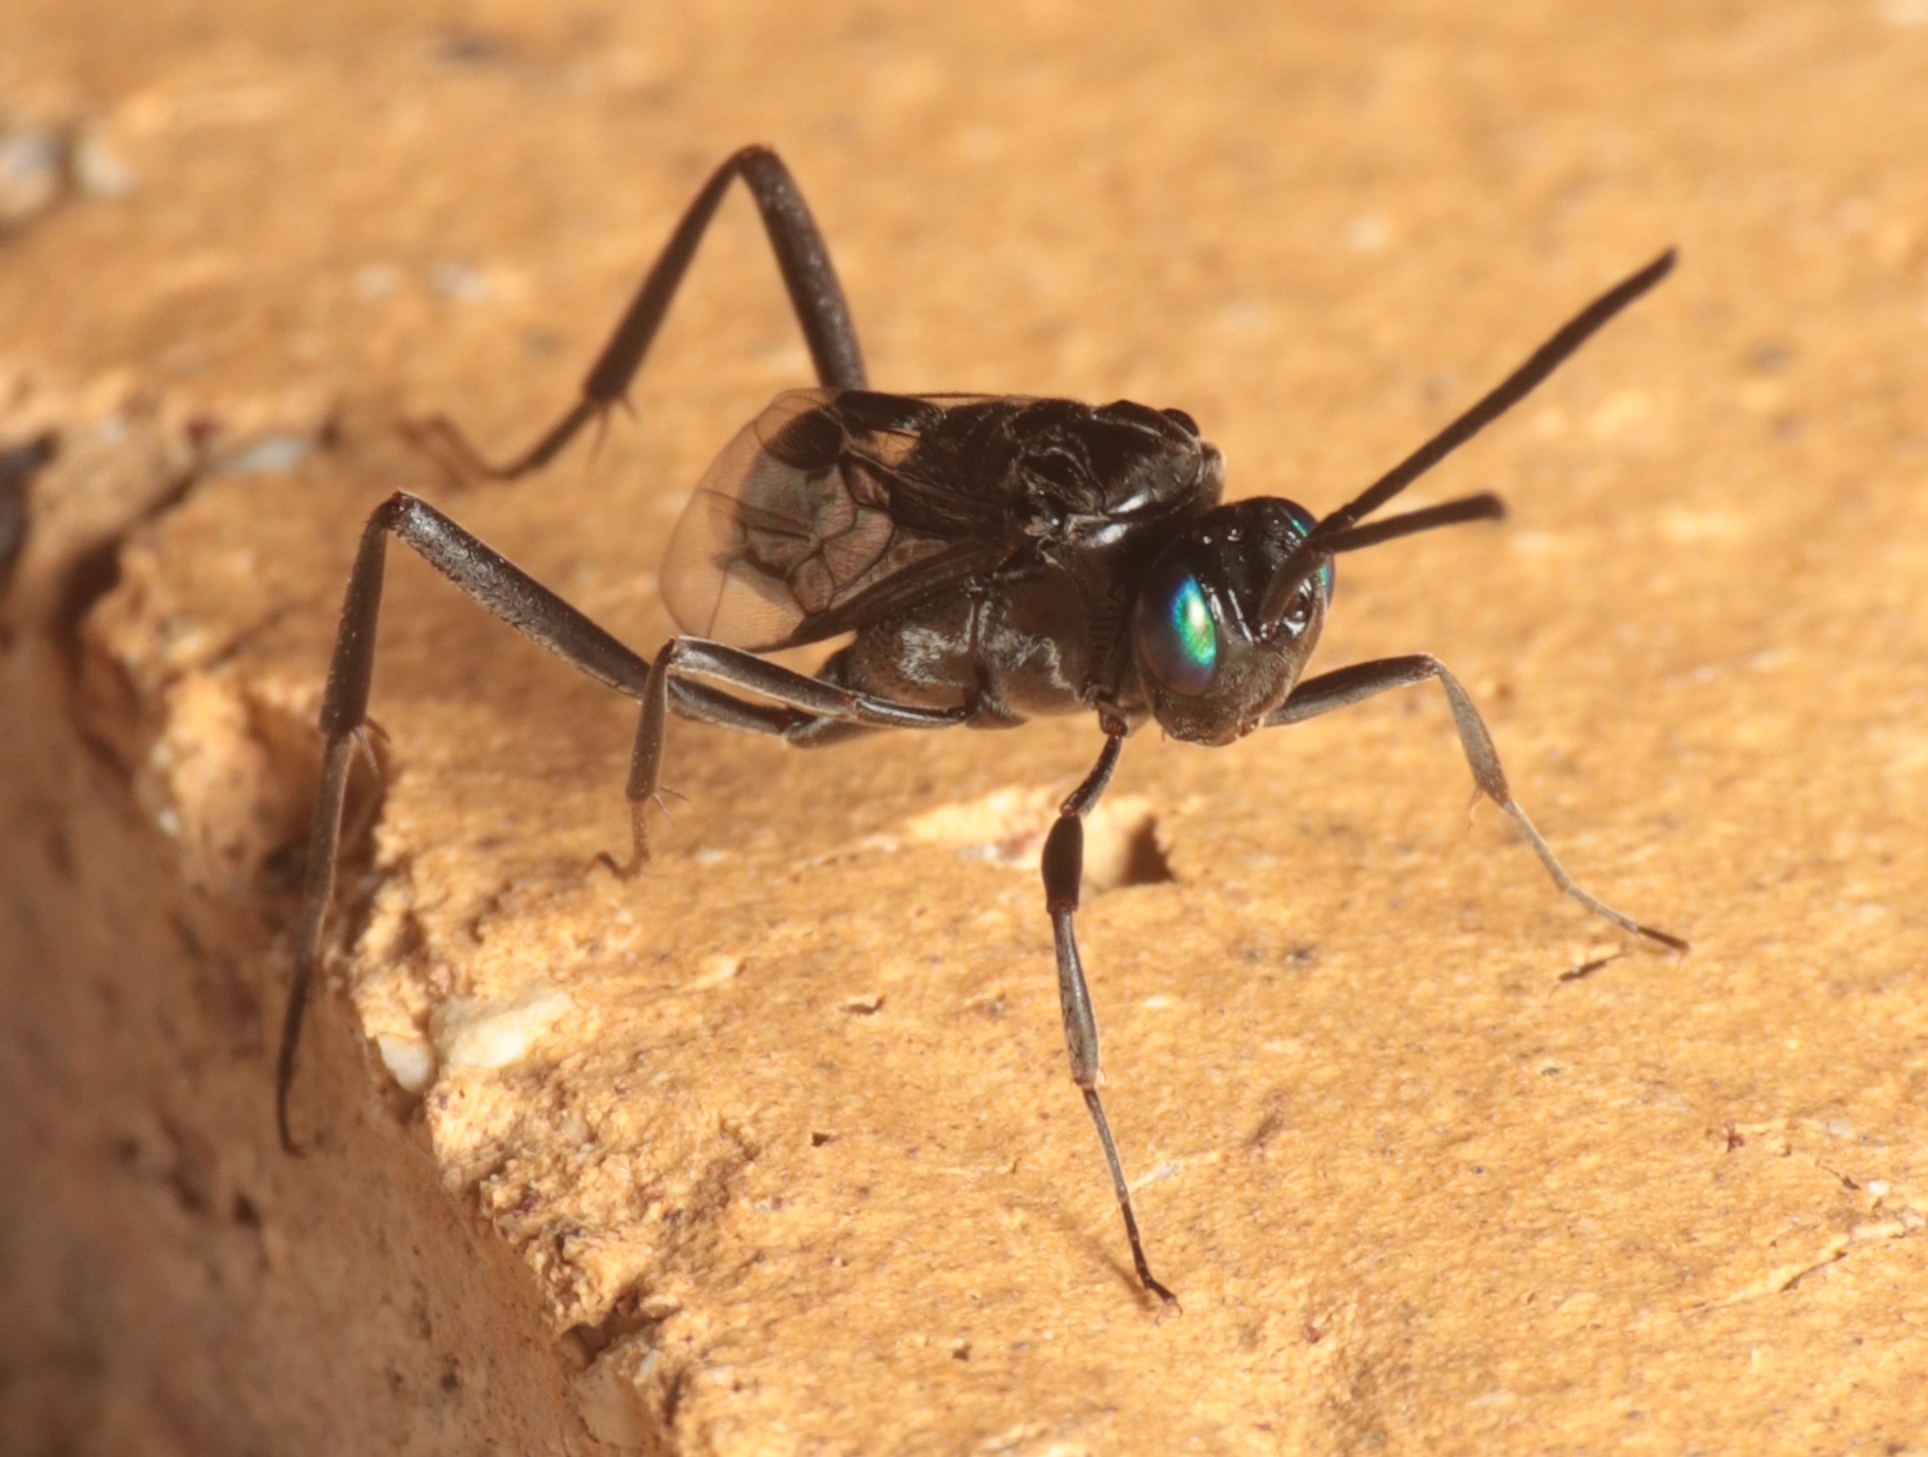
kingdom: Animalia
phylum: Arthropoda
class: Insecta
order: Hymenoptera
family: Evaniidae
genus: Evania
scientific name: Evania appendigaster
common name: Ensign wasp
